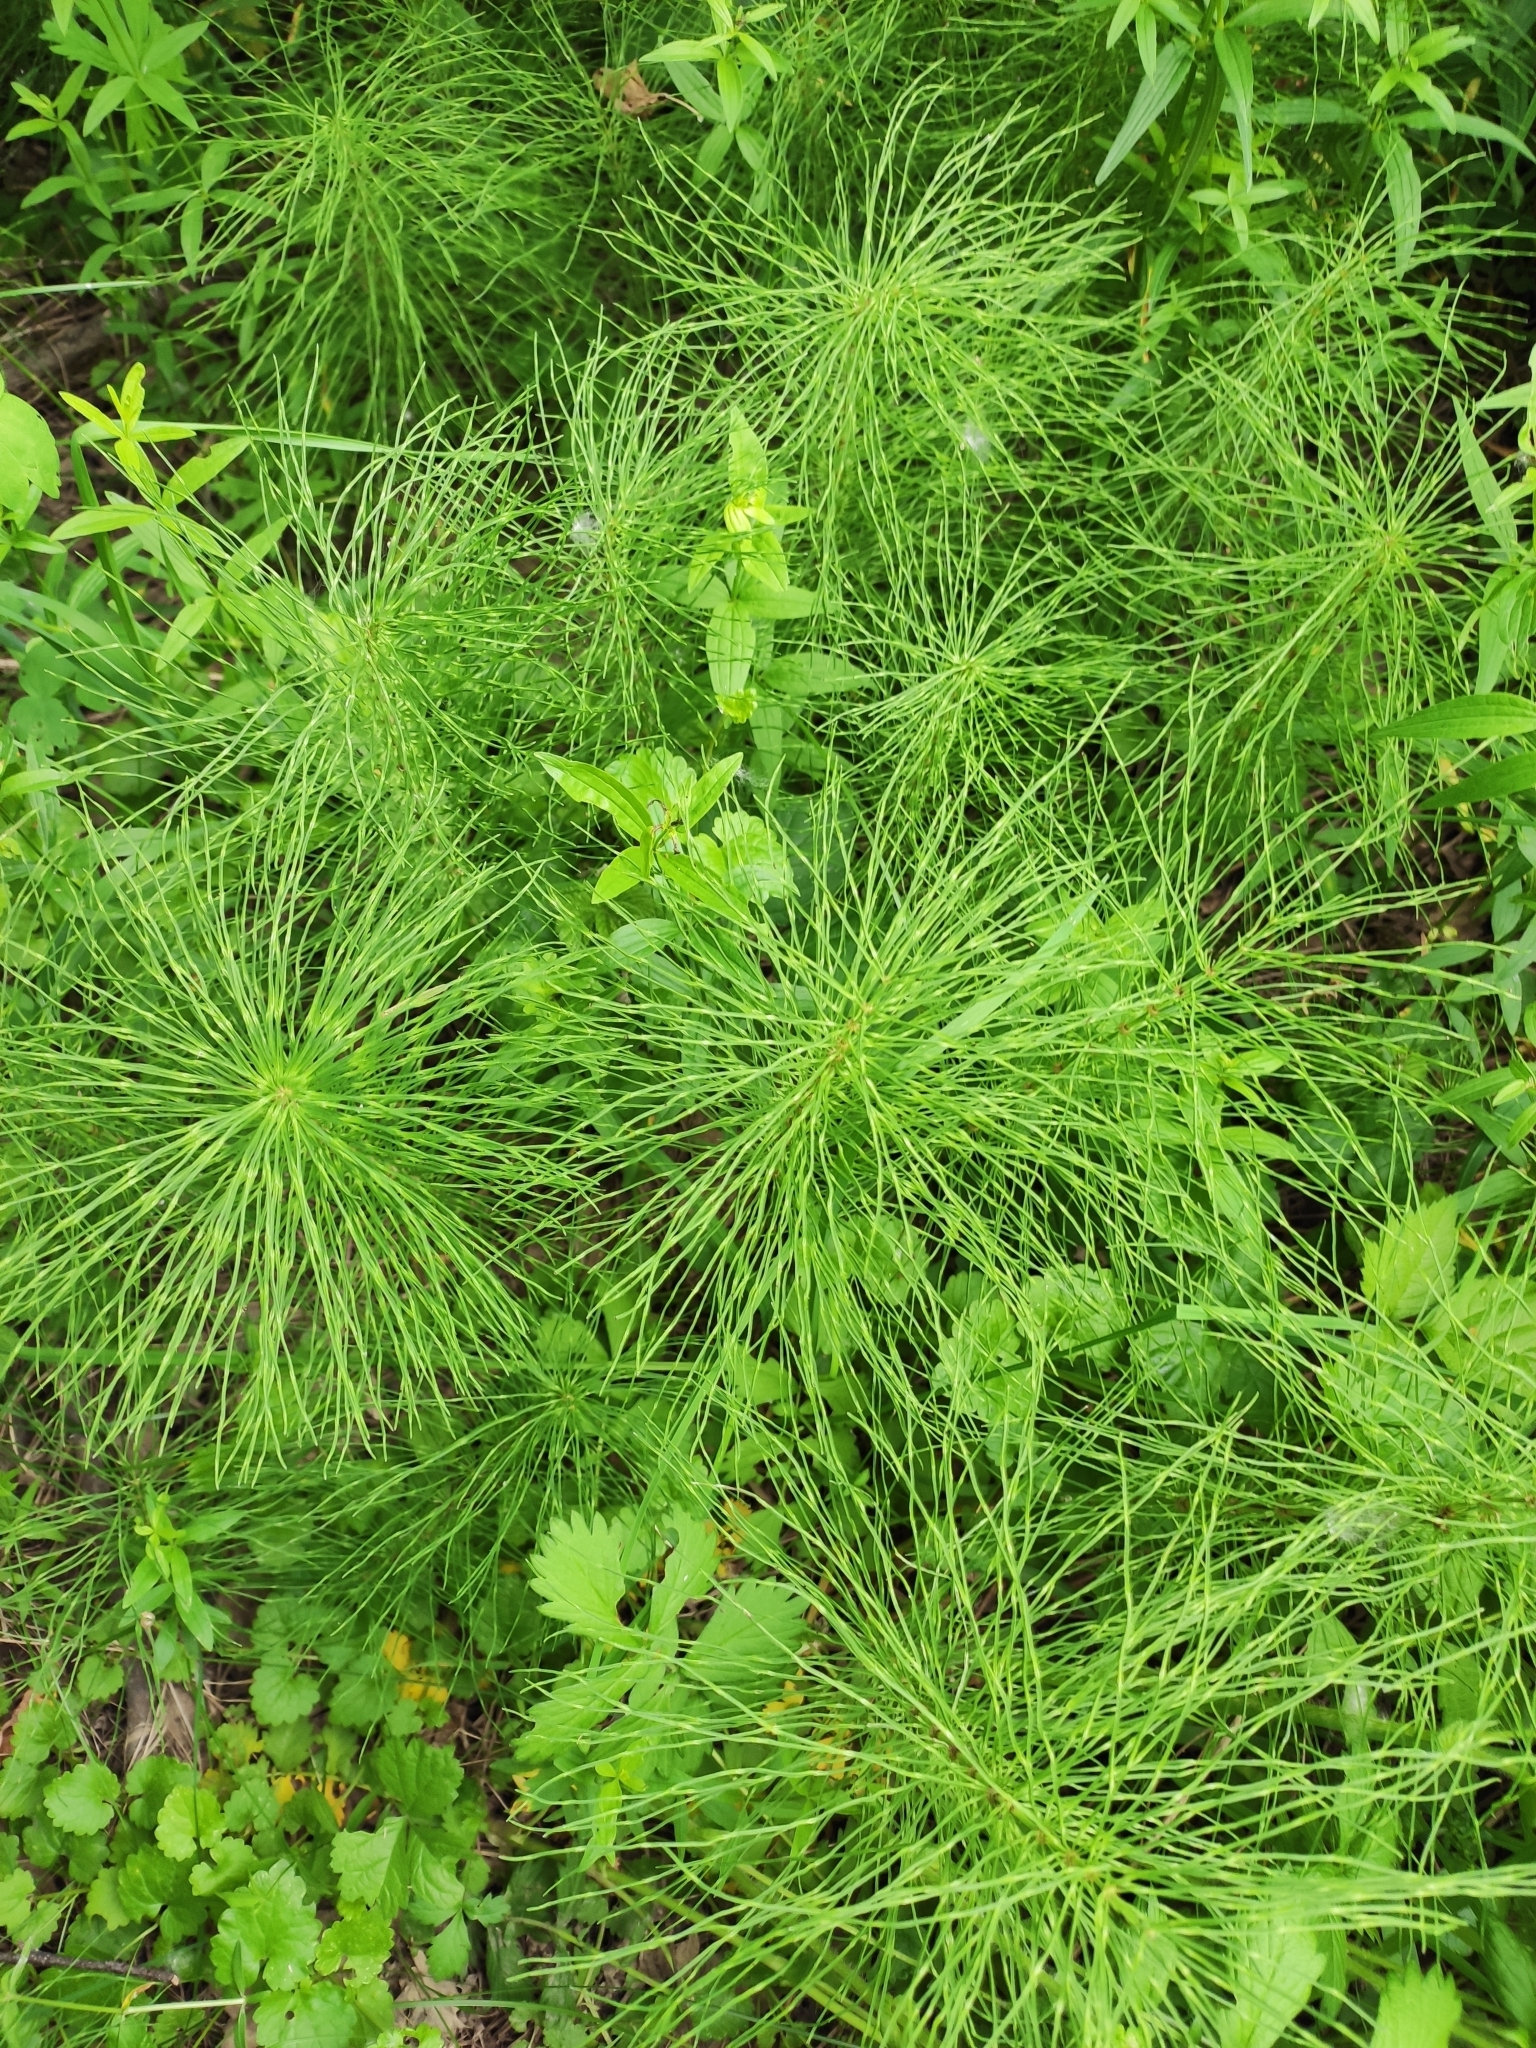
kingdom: Plantae
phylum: Tracheophyta
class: Polypodiopsida
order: Equisetales
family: Equisetaceae
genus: Equisetum
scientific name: Equisetum pratense
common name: Meadow horsetail
